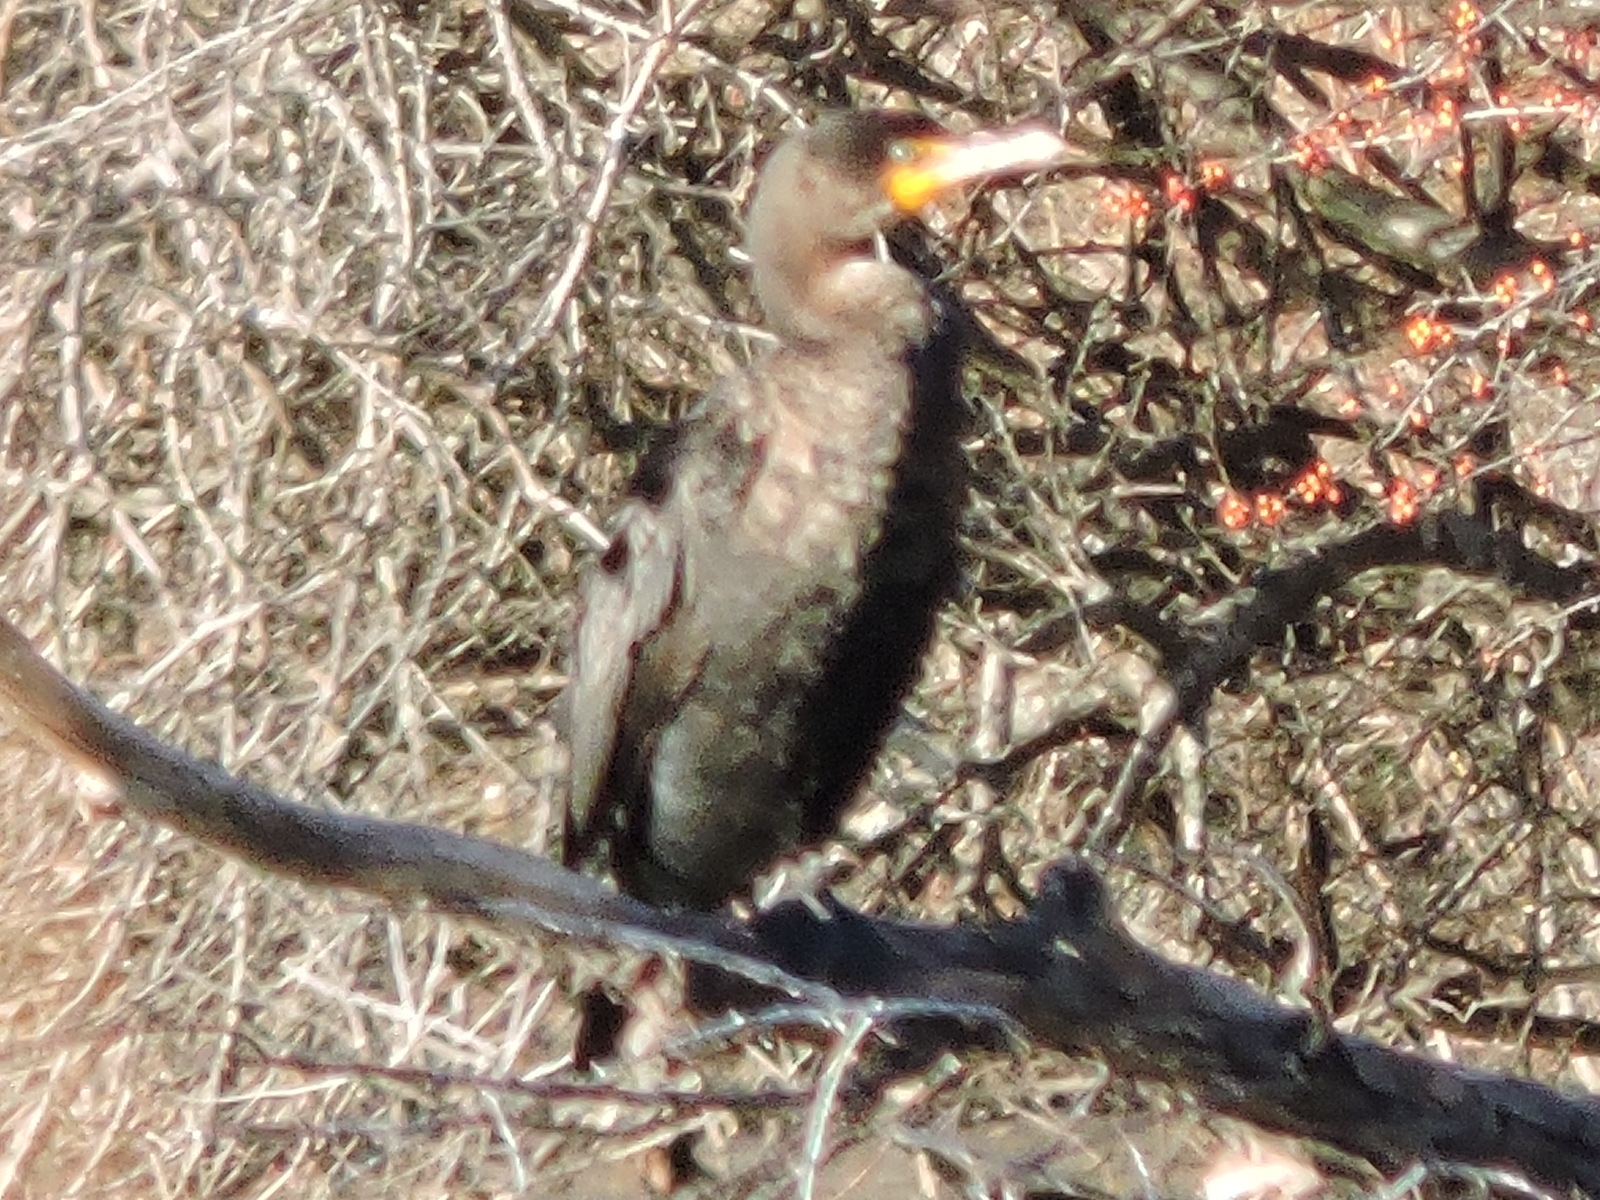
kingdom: Animalia
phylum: Chordata
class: Aves
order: Suliformes
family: Phalacrocoracidae
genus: Phalacrocorax
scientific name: Phalacrocorax auritus
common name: Double-crested cormorant
